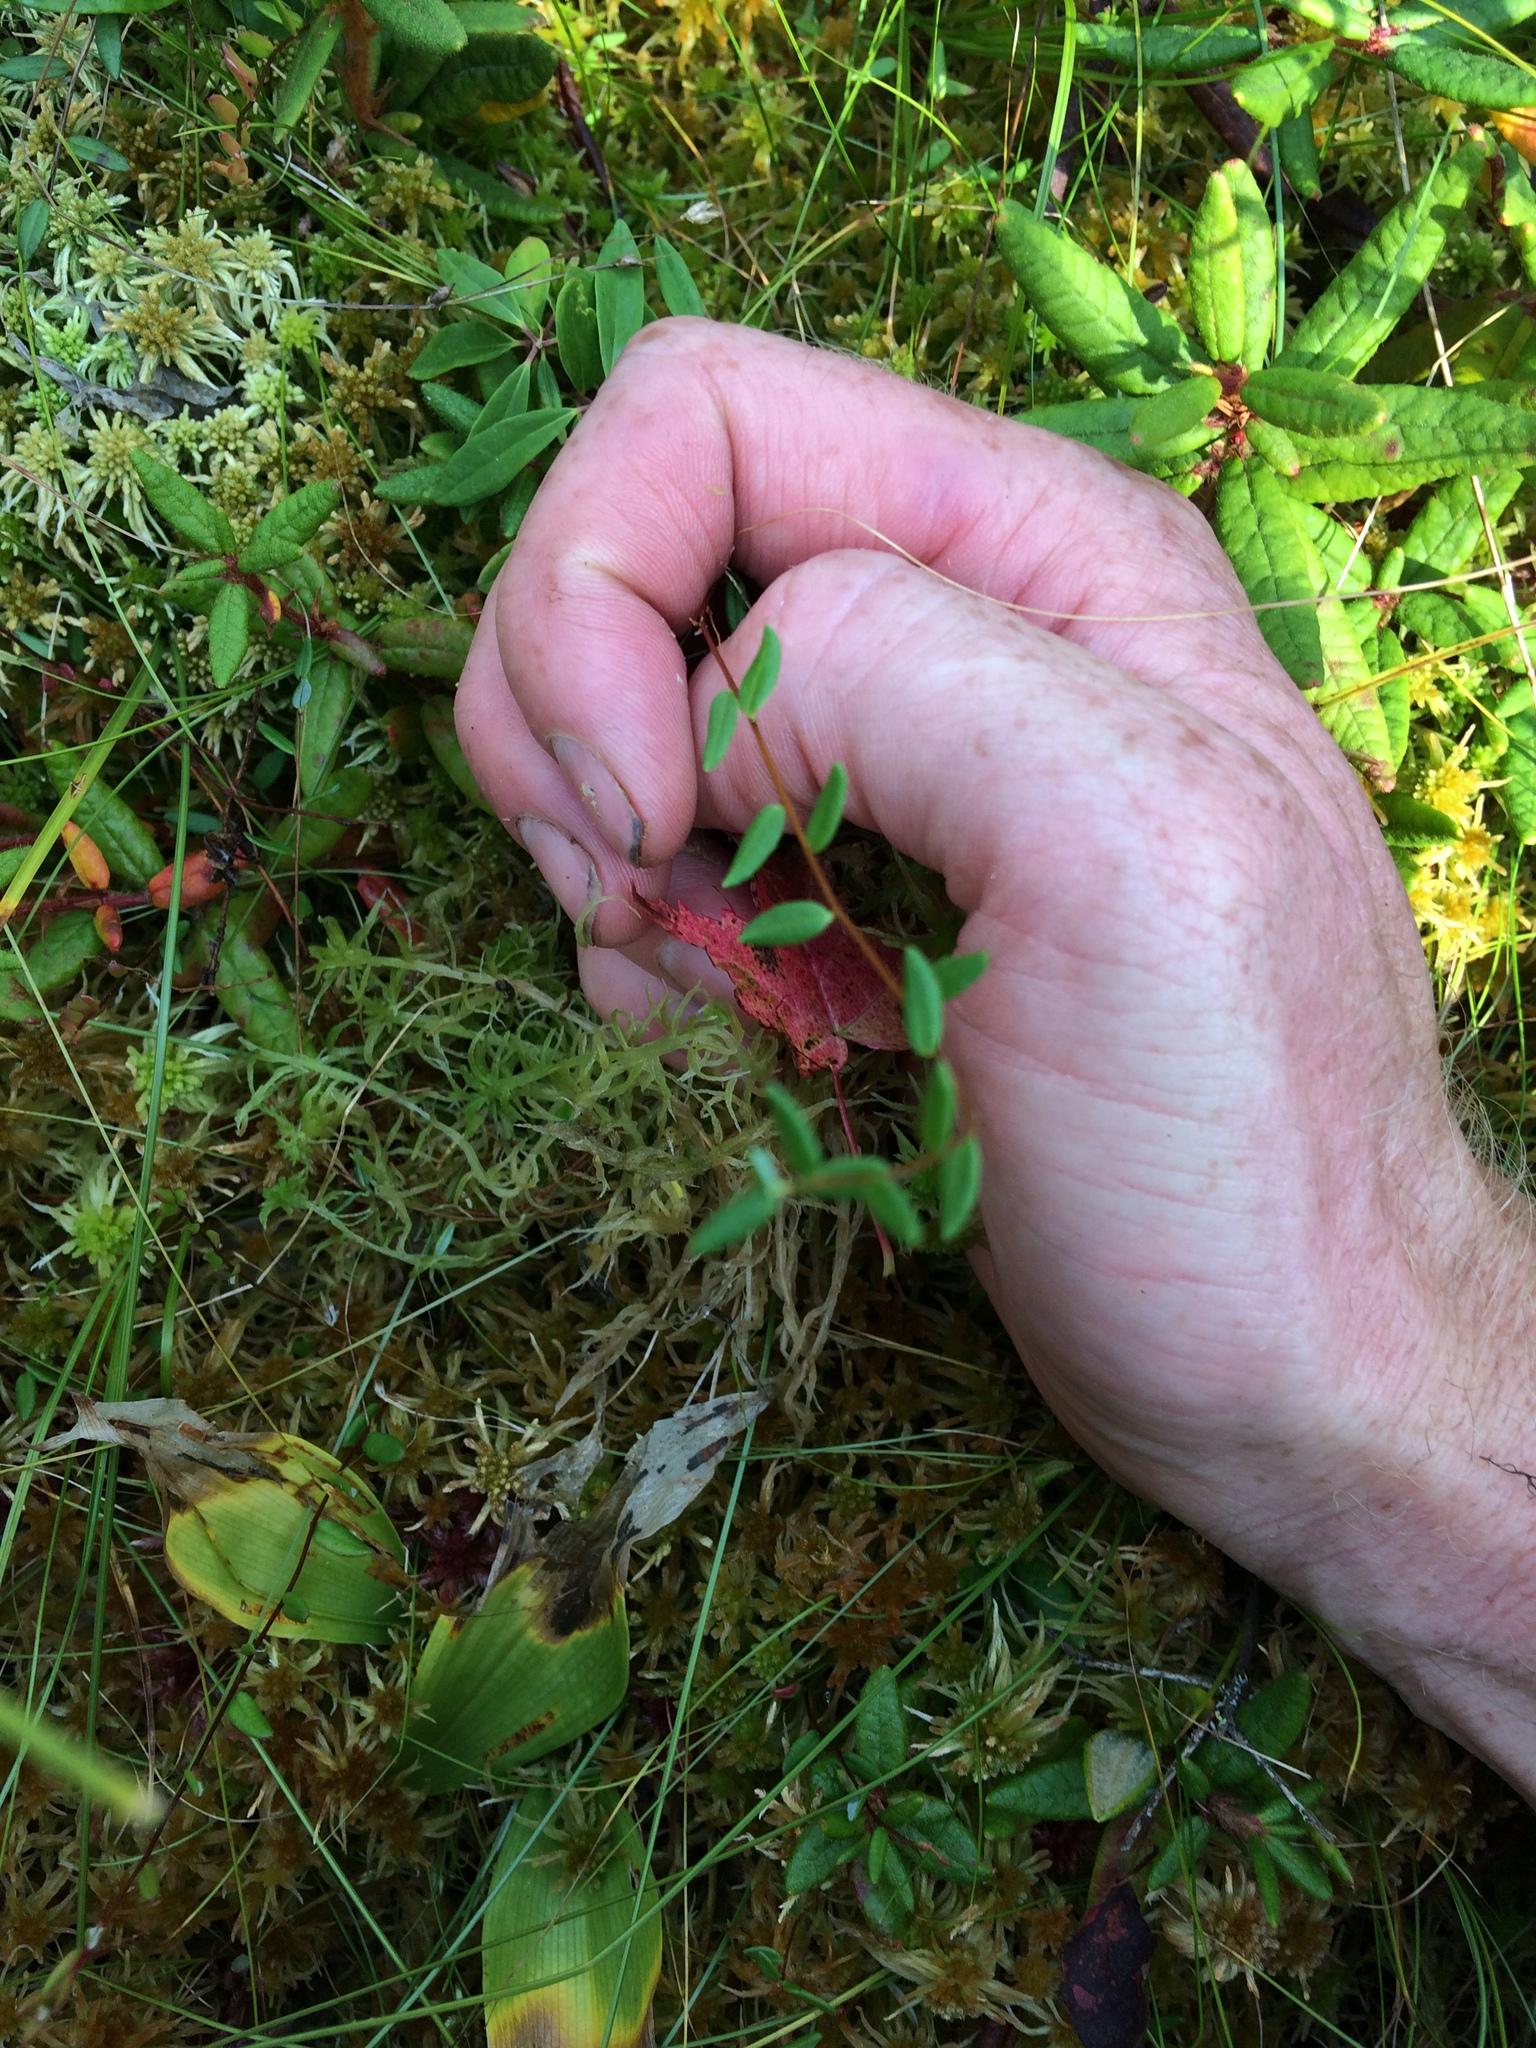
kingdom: Plantae
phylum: Tracheophyta
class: Magnoliopsida
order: Ericales
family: Ericaceae
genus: Vaccinium
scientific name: Vaccinium oxycoccos
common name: Cranberry
